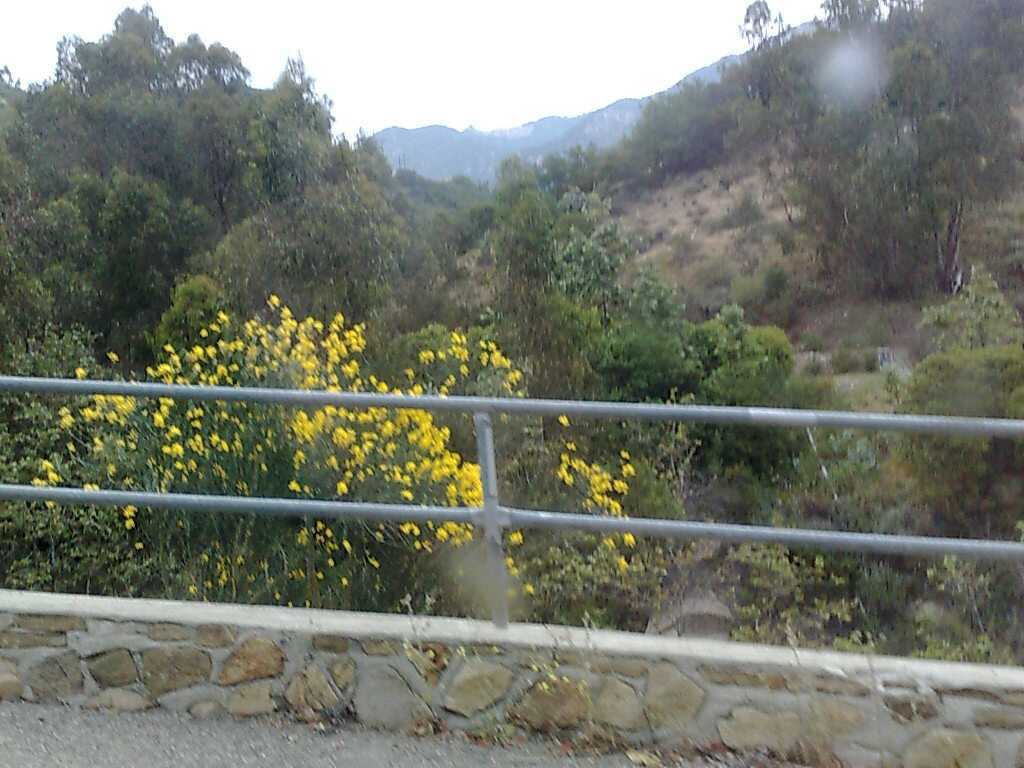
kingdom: Plantae
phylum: Tracheophyta
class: Magnoliopsida
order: Fabales
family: Fabaceae
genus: Spartium
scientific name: Spartium junceum
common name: Spanish broom
